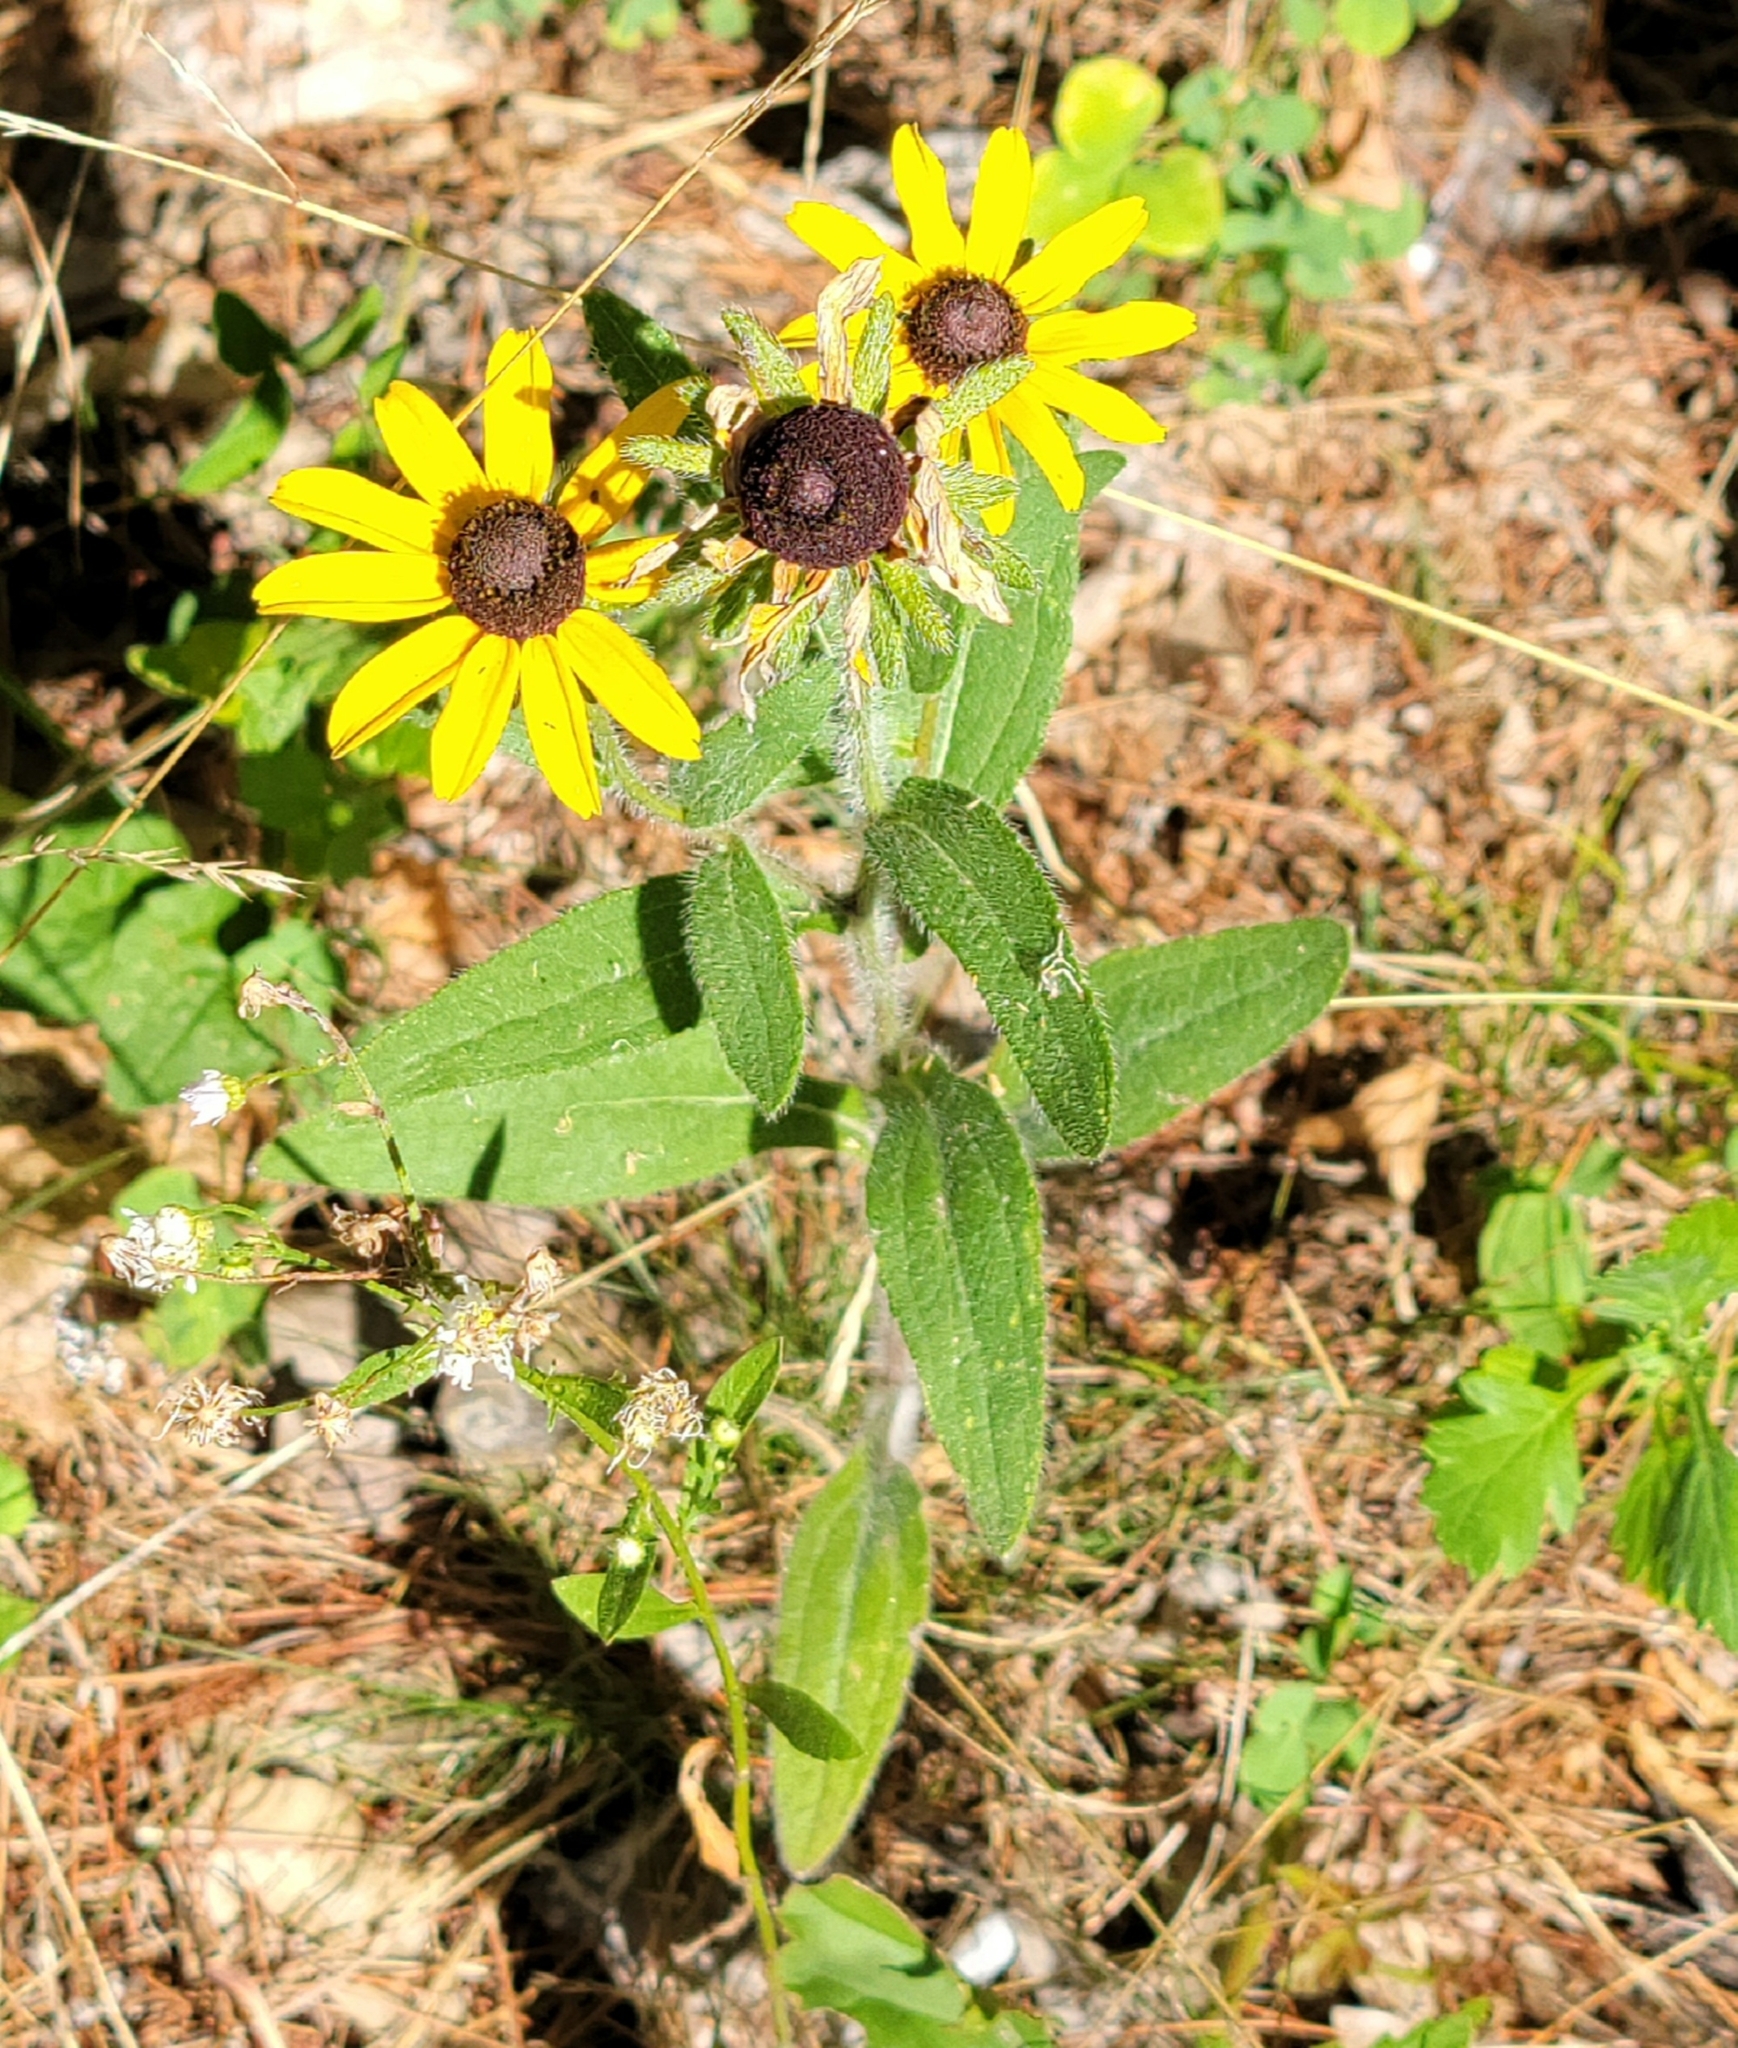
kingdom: Plantae
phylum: Tracheophyta
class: Magnoliopsida
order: Asterales
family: Asteraceae
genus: Rudbeckia
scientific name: Rudbeckia hirta
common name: Black-eyed-susan
